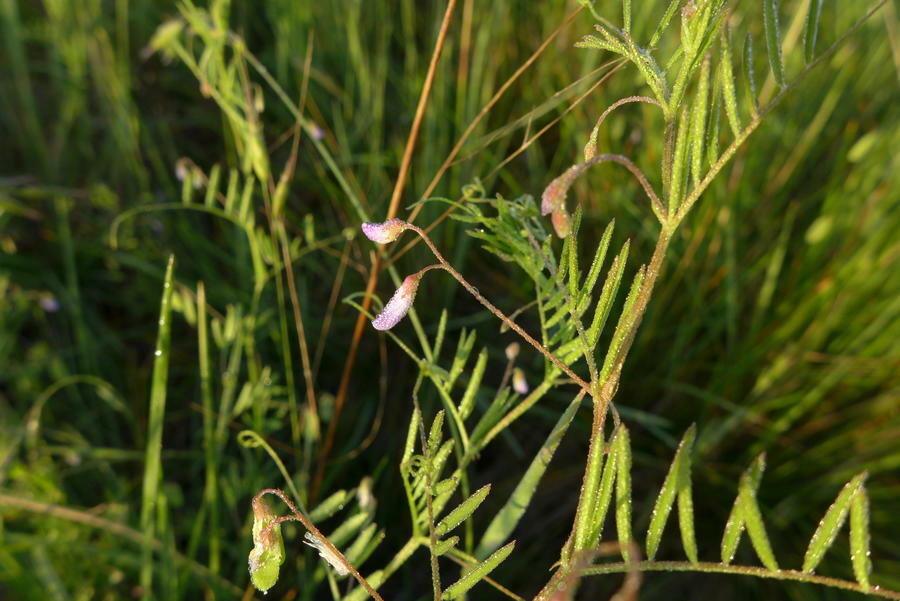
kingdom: Plantae
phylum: Tracheophyta
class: Magnoliopsida
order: Fabales
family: Fabaceae
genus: Vicia
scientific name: Vicia tetrasperma
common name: Smooth tare
